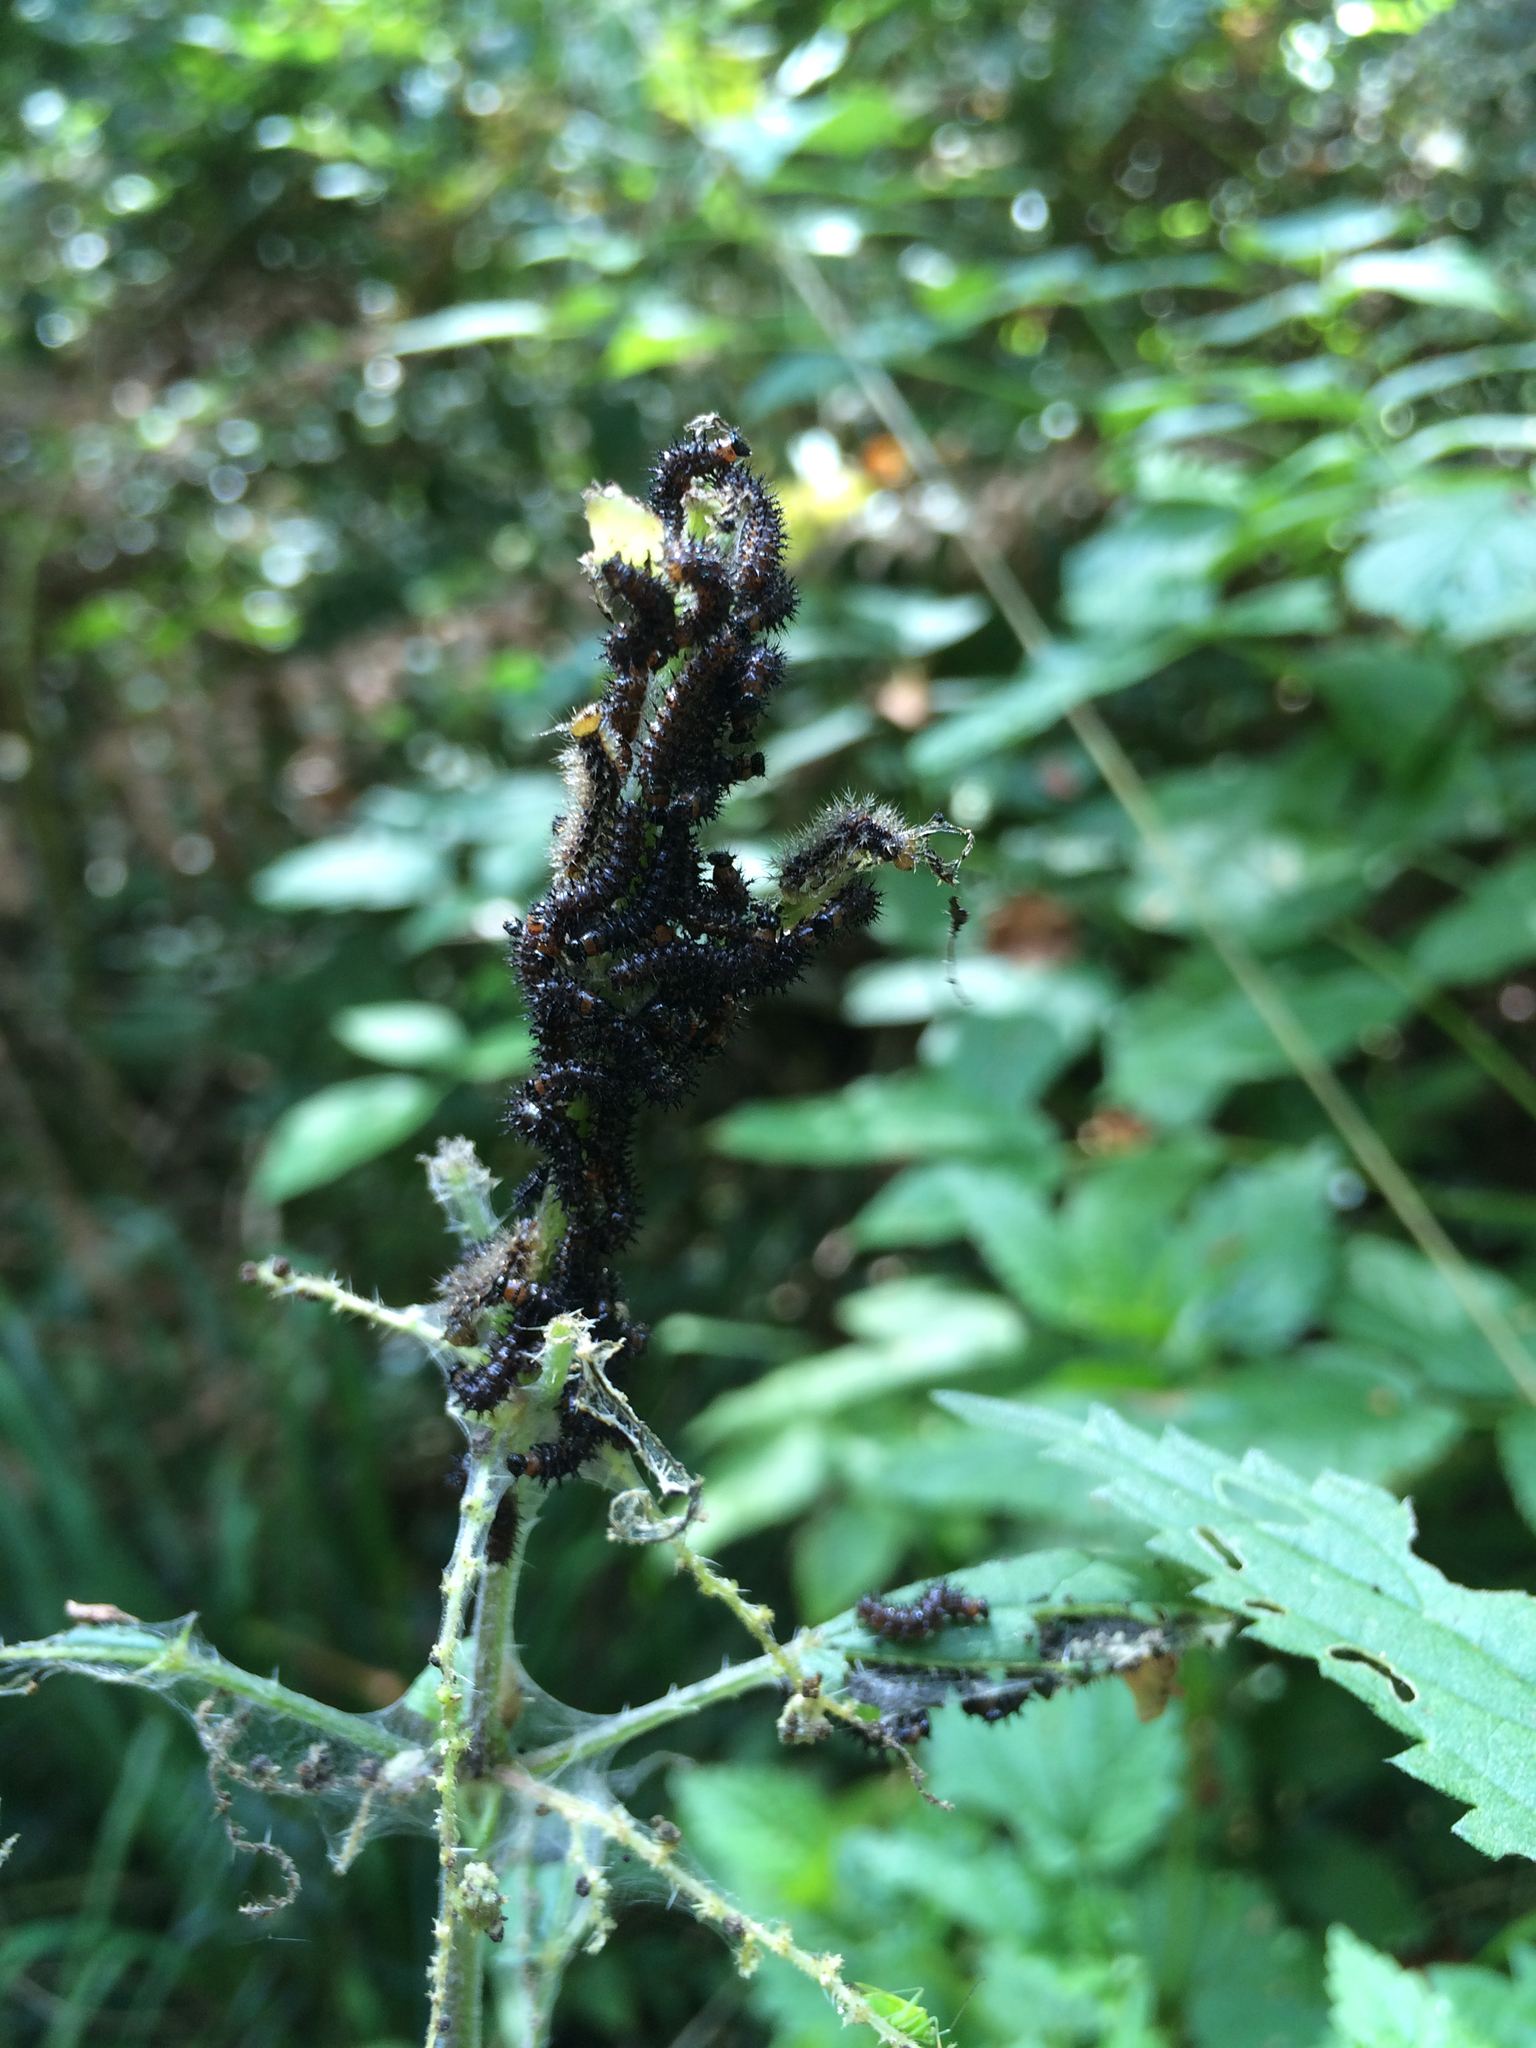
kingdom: Animalia
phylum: Arthropoda
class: Insecta
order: Lepidoptera
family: Nymphalidae
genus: Araschnia
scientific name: Araschnia levana
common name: Map butterfly
